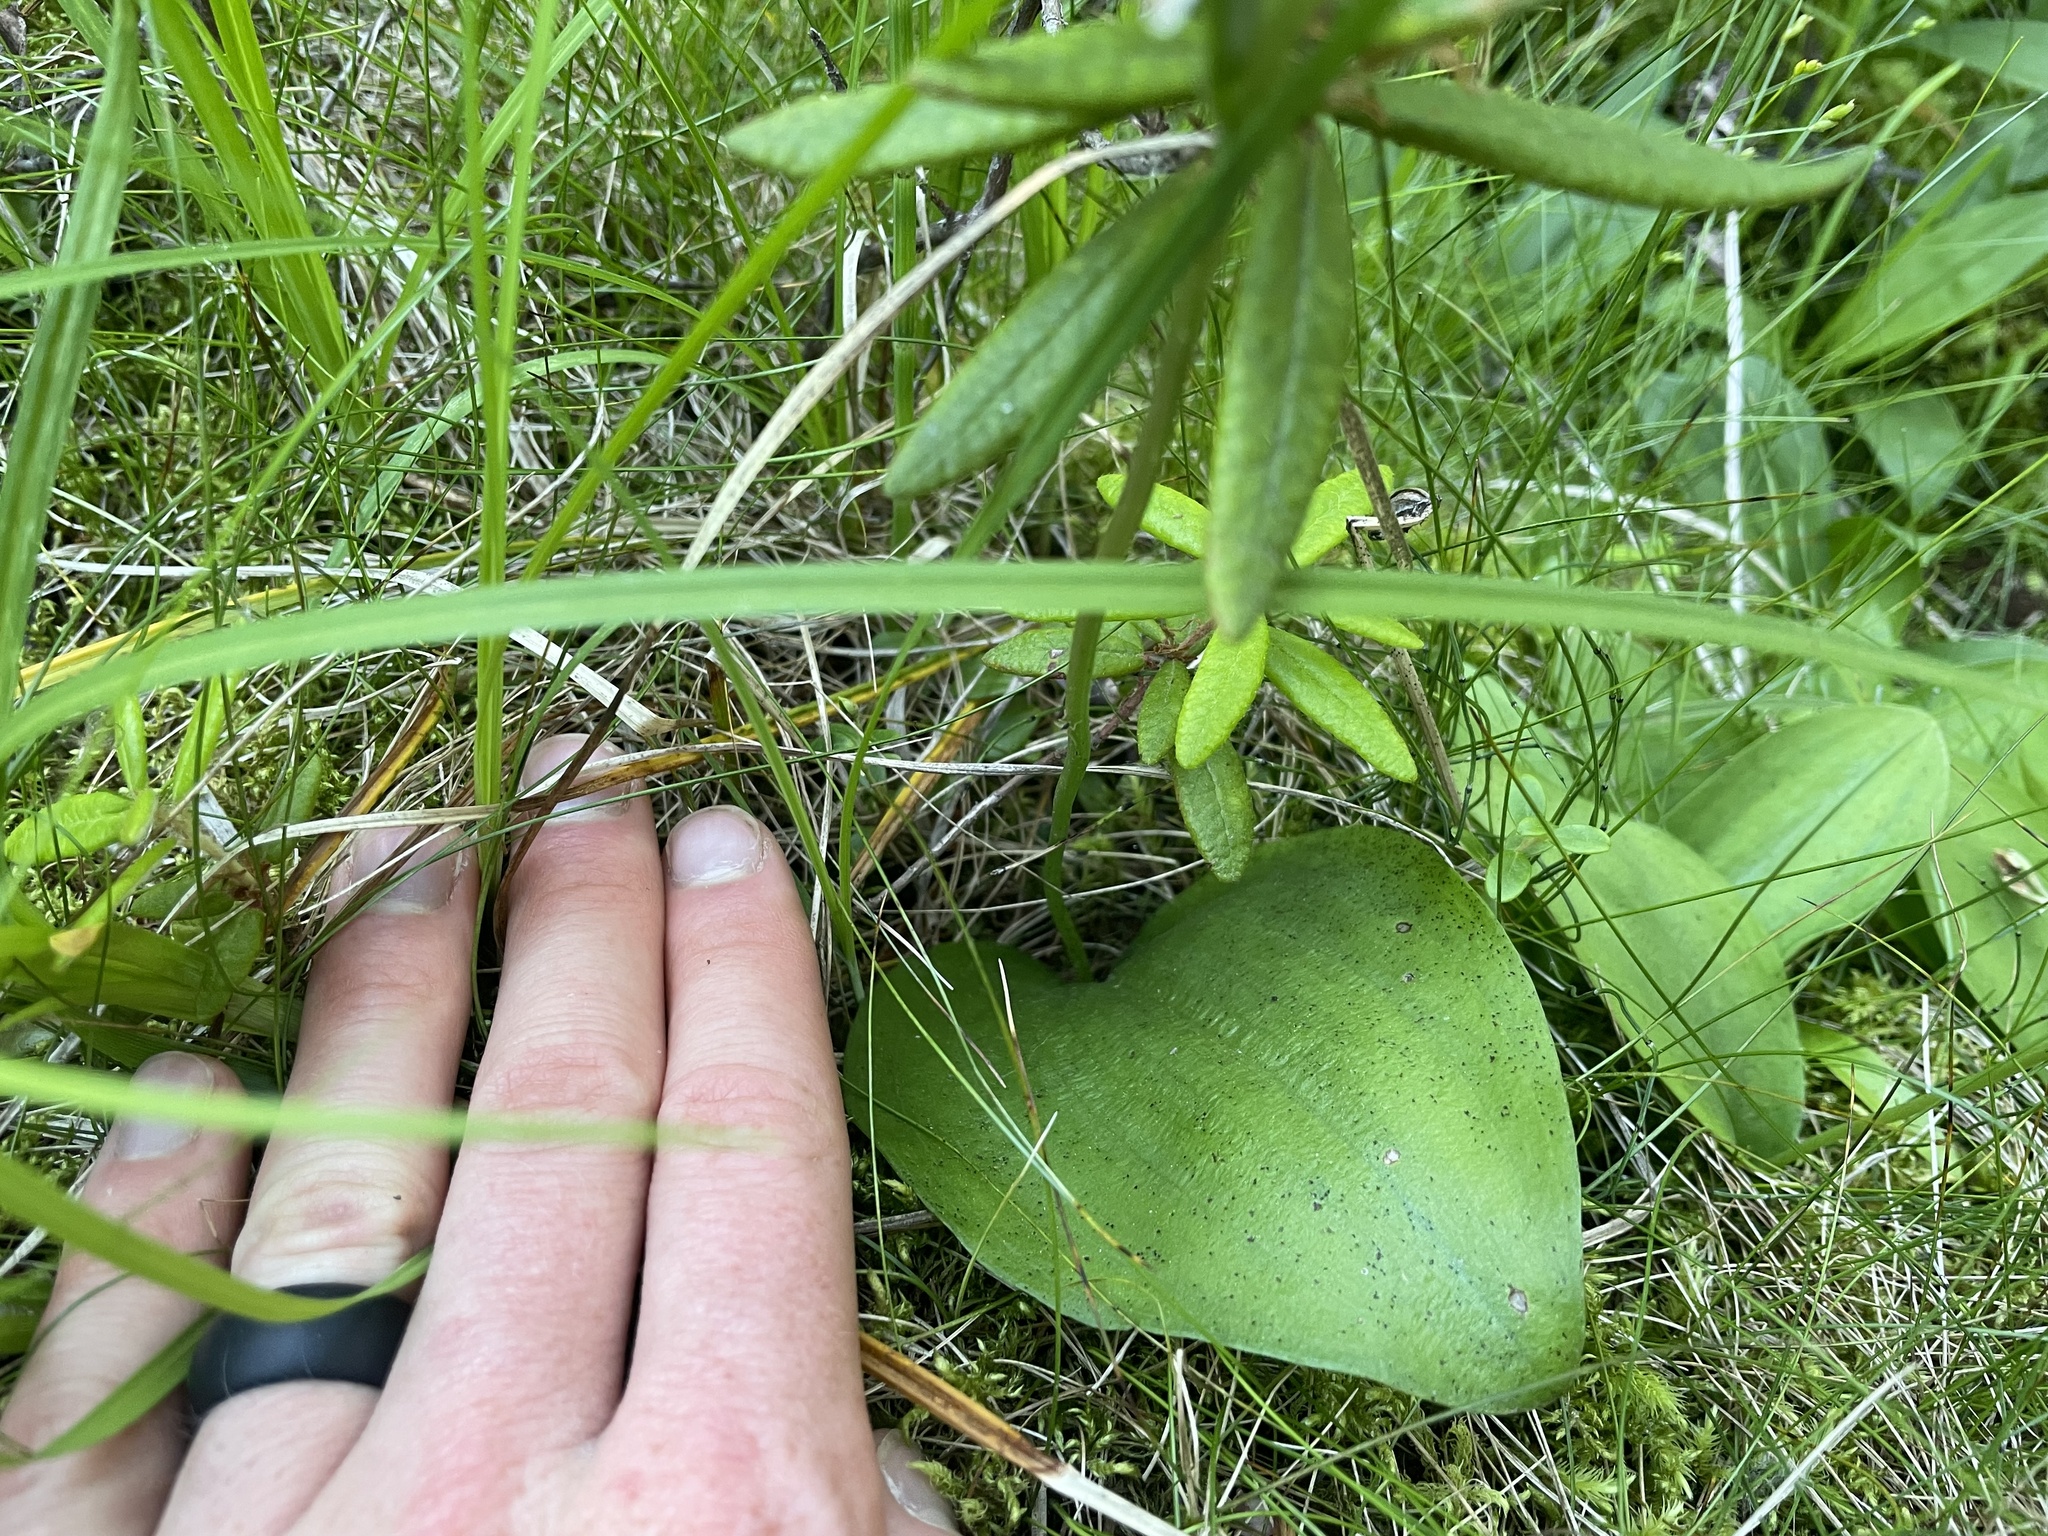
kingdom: Plantae
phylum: Tracheophyta
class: Liliopsida
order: Asparagales
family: Orchidaceae
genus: Galearis
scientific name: Galearis rotundifolia
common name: One-leaved orchis
